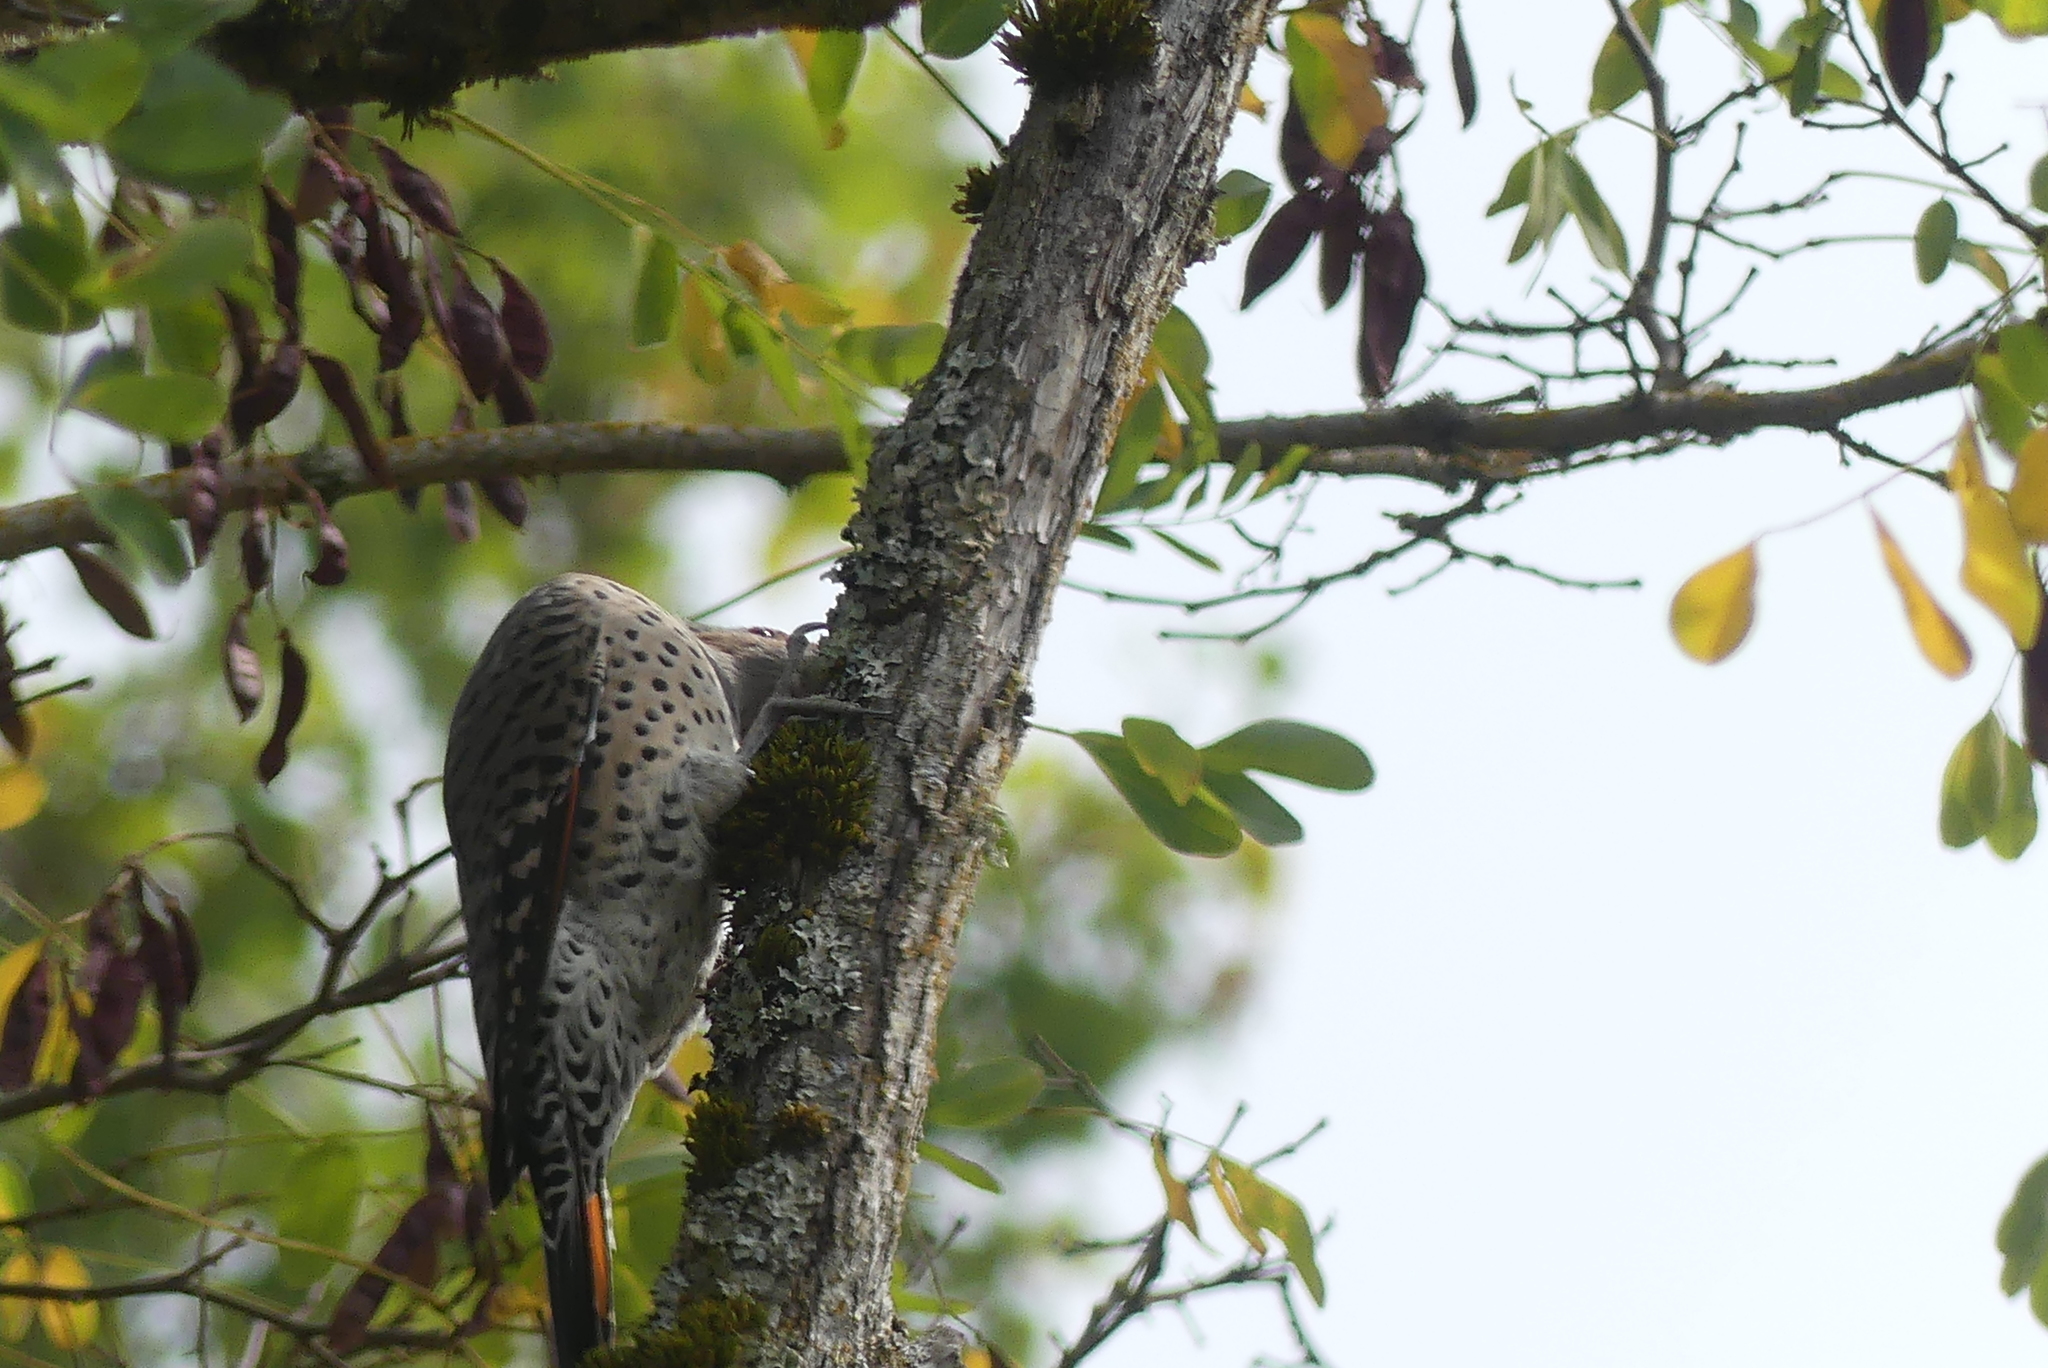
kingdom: Animalia
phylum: Chordata
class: Aves
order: Piciformes
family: Picidae
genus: Colaptes
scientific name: Colaptes auratus
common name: Northern flicker
